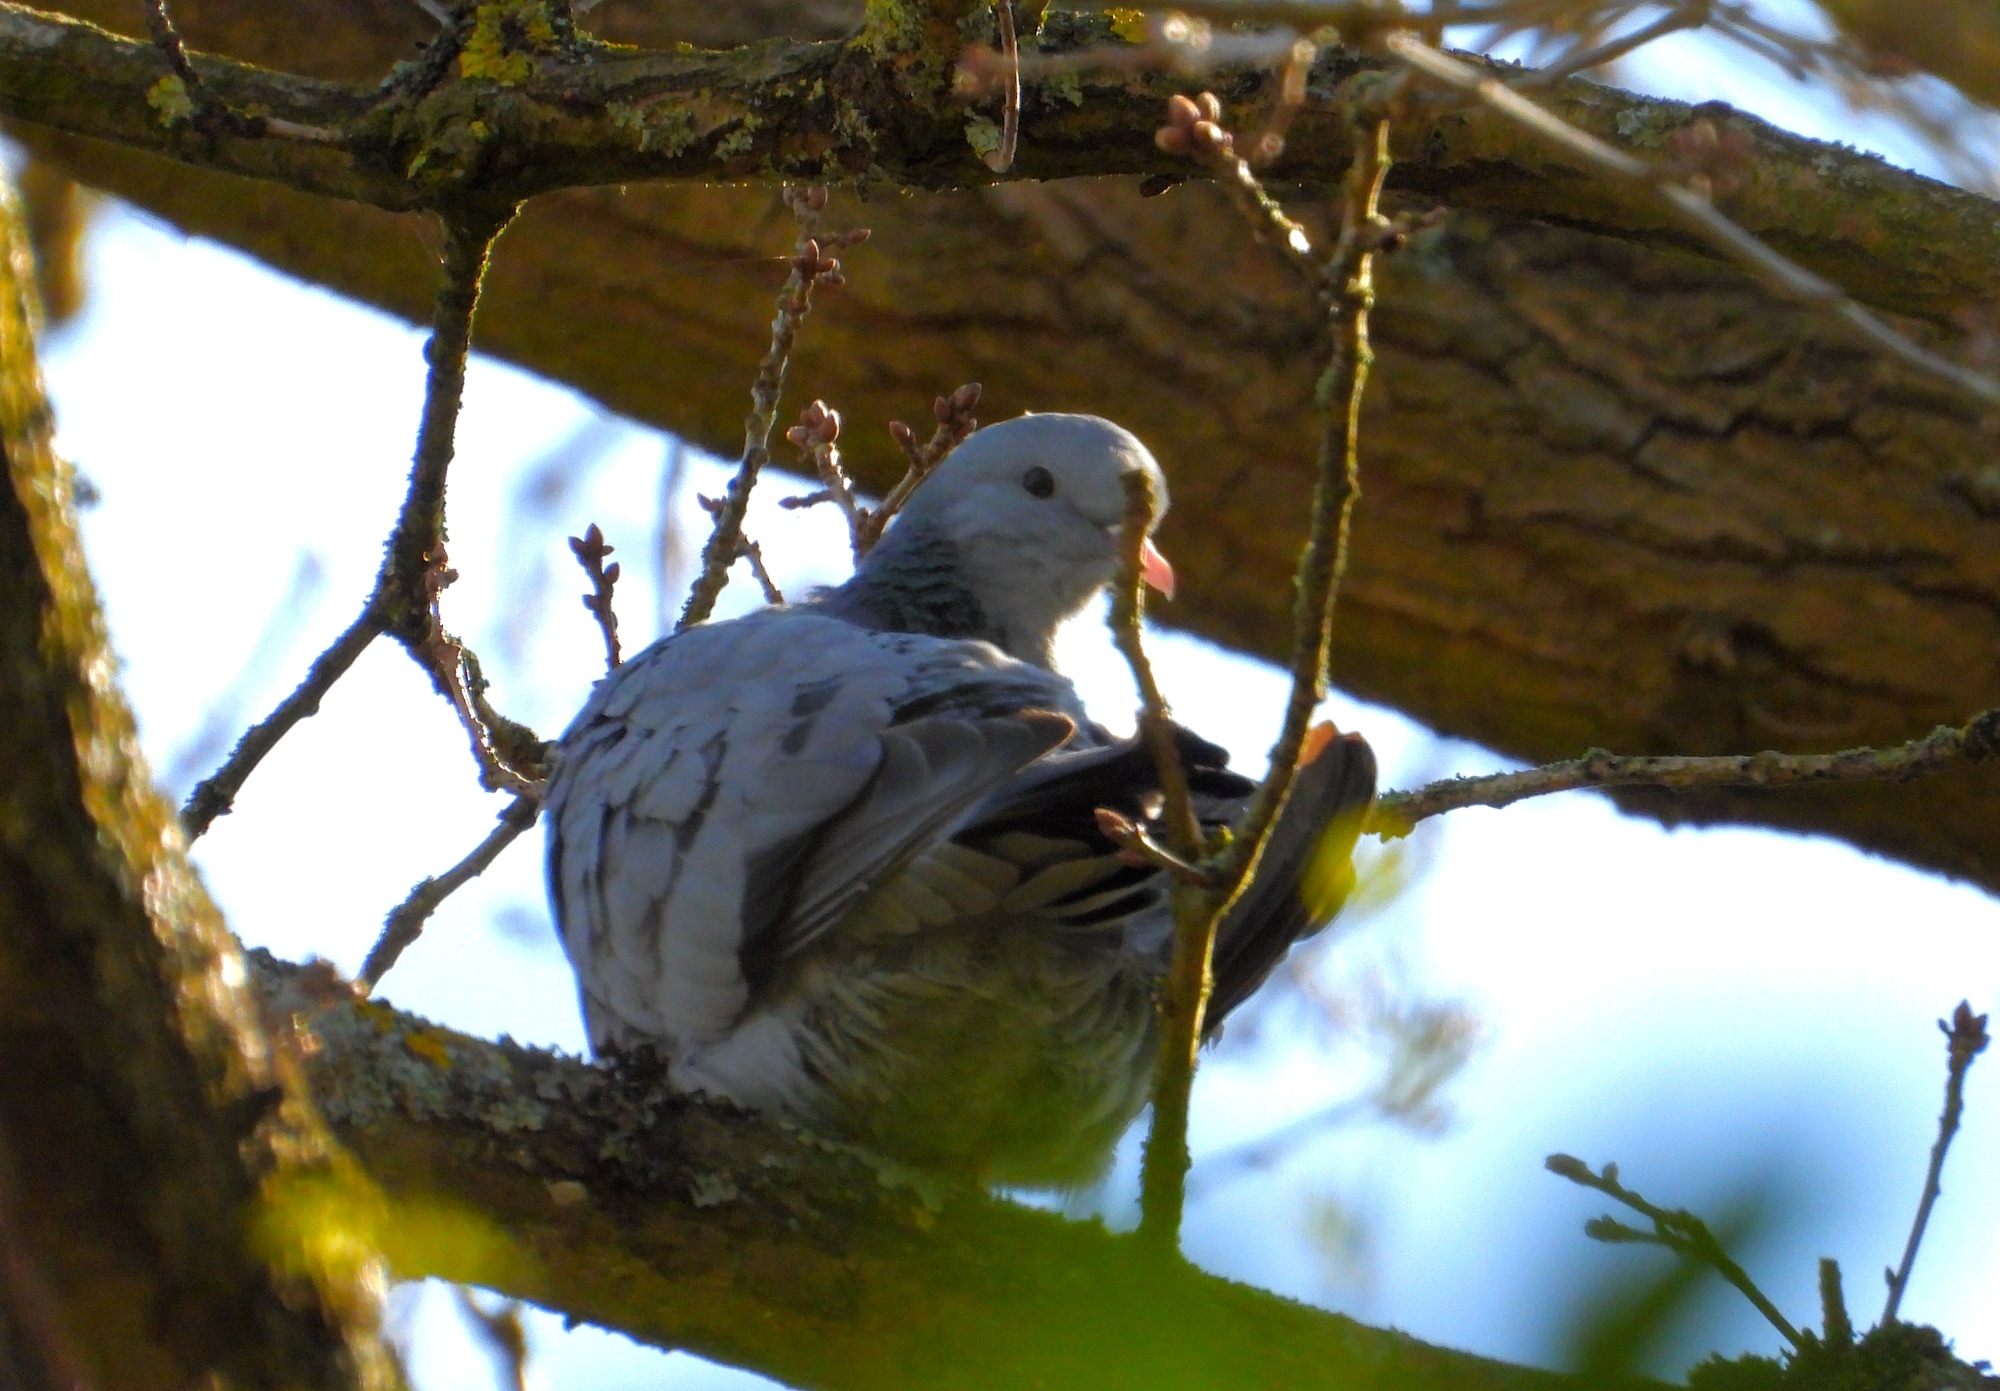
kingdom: Animalia
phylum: Chordata
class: Aves
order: Columbiformes
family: Columbidae
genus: Columba
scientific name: Columba oenas
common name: Stock dove
